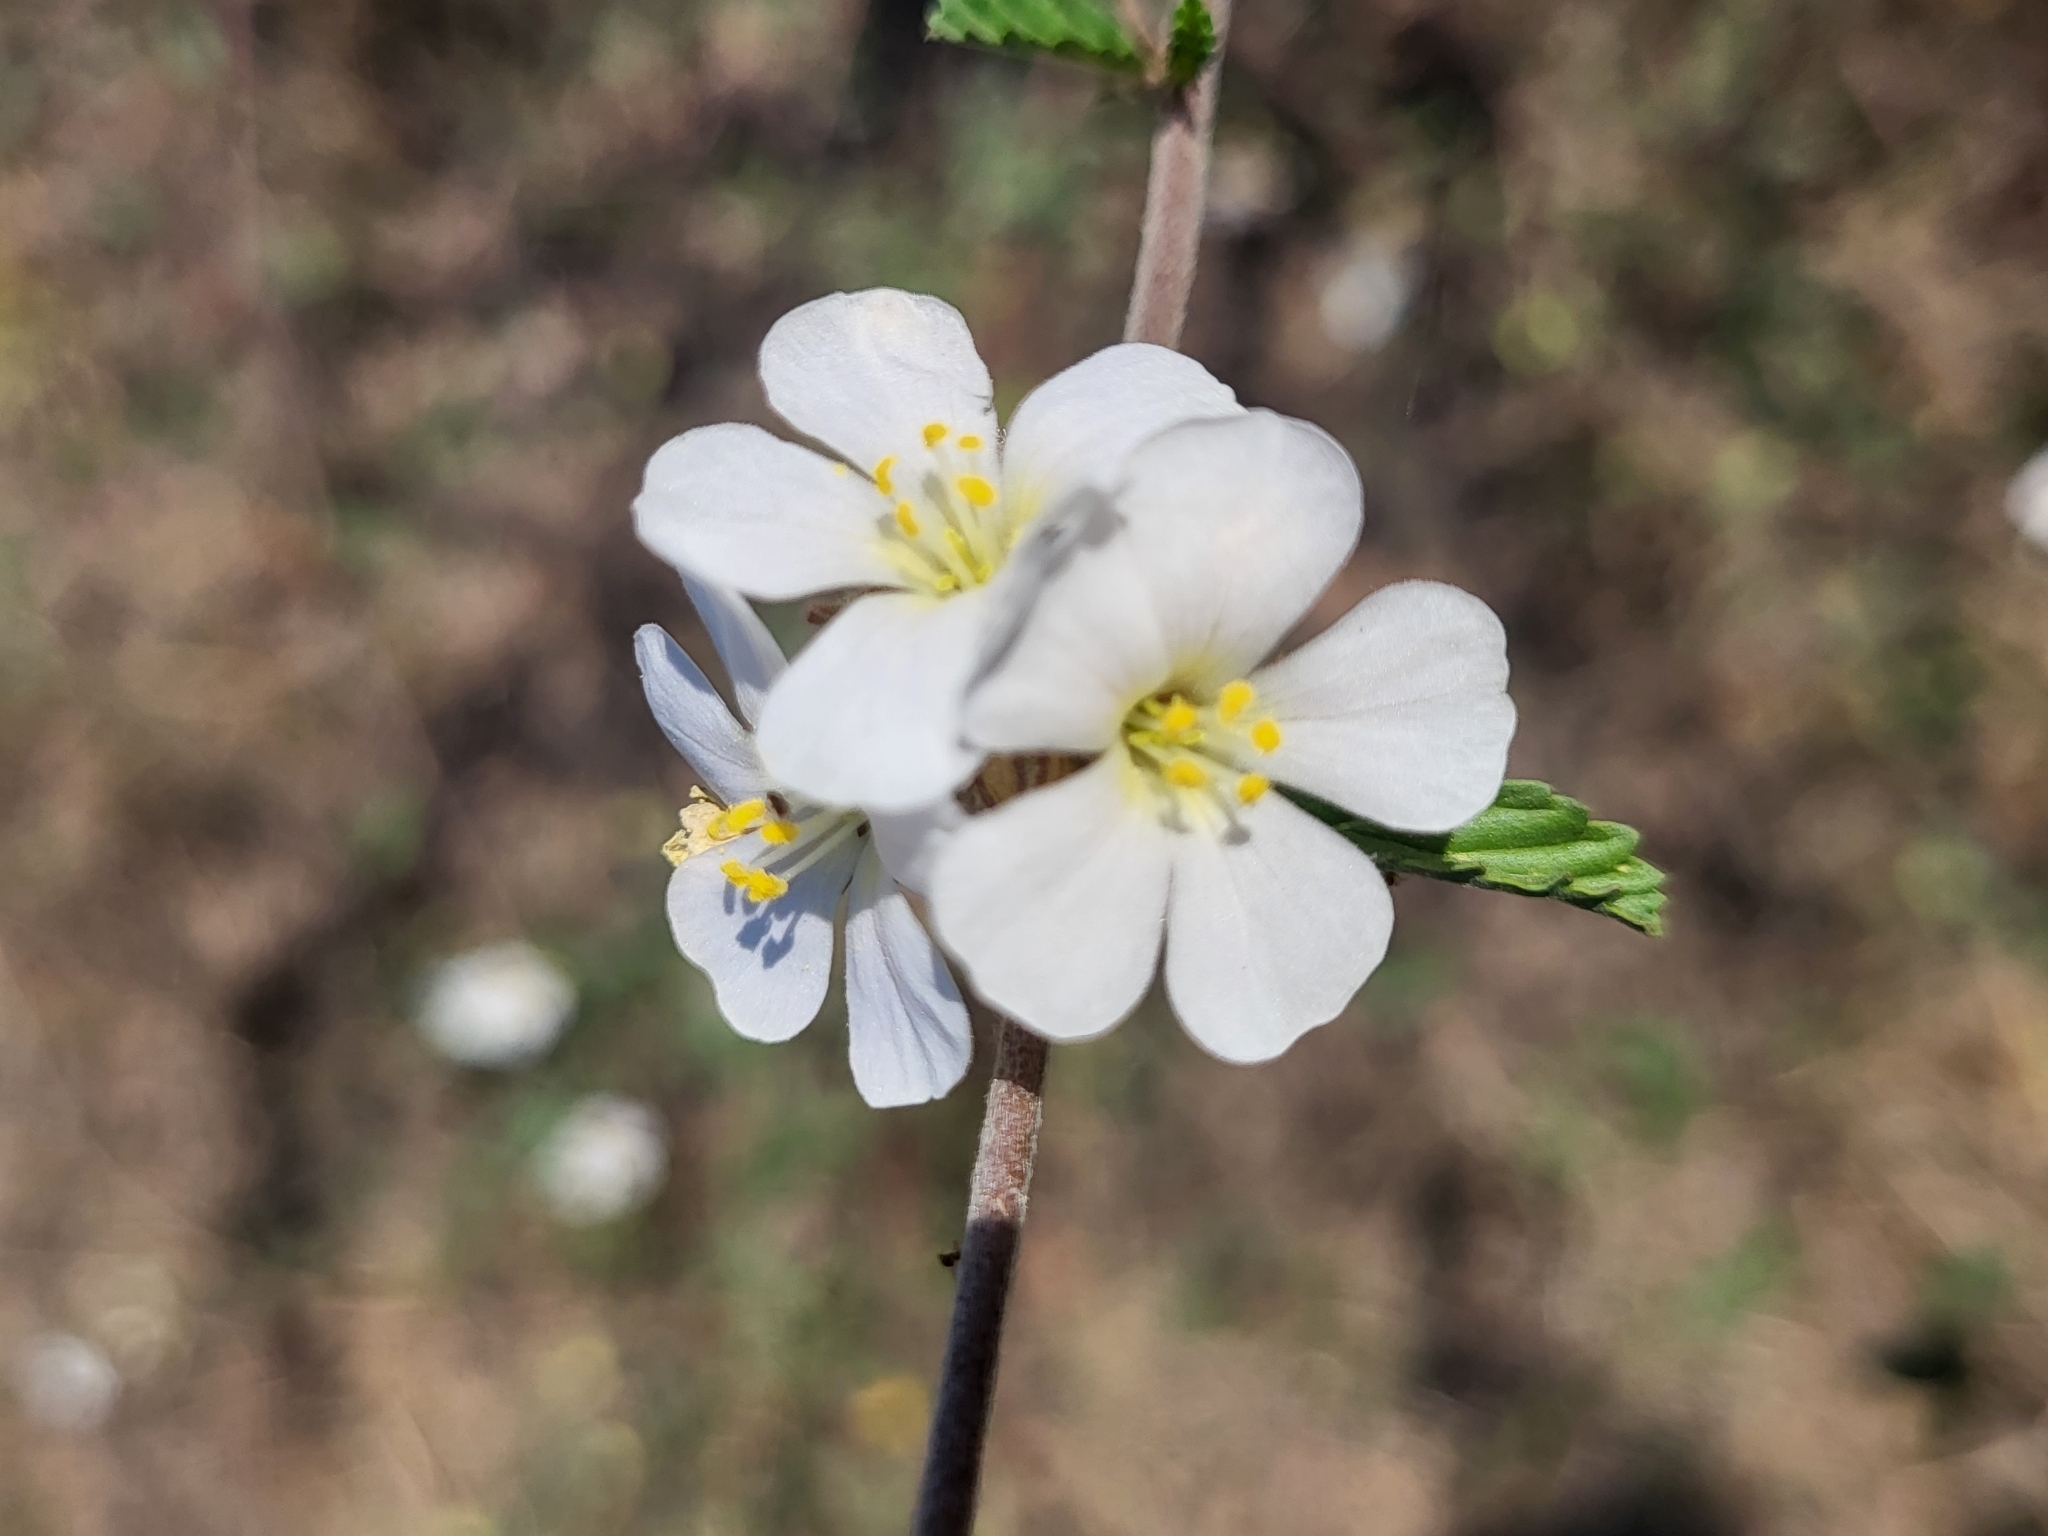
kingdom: Plantae
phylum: Tracheophyta
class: Magnoliopsida
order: Malvales
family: Malvaceae
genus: Melochia
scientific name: Melochia parvifolia
